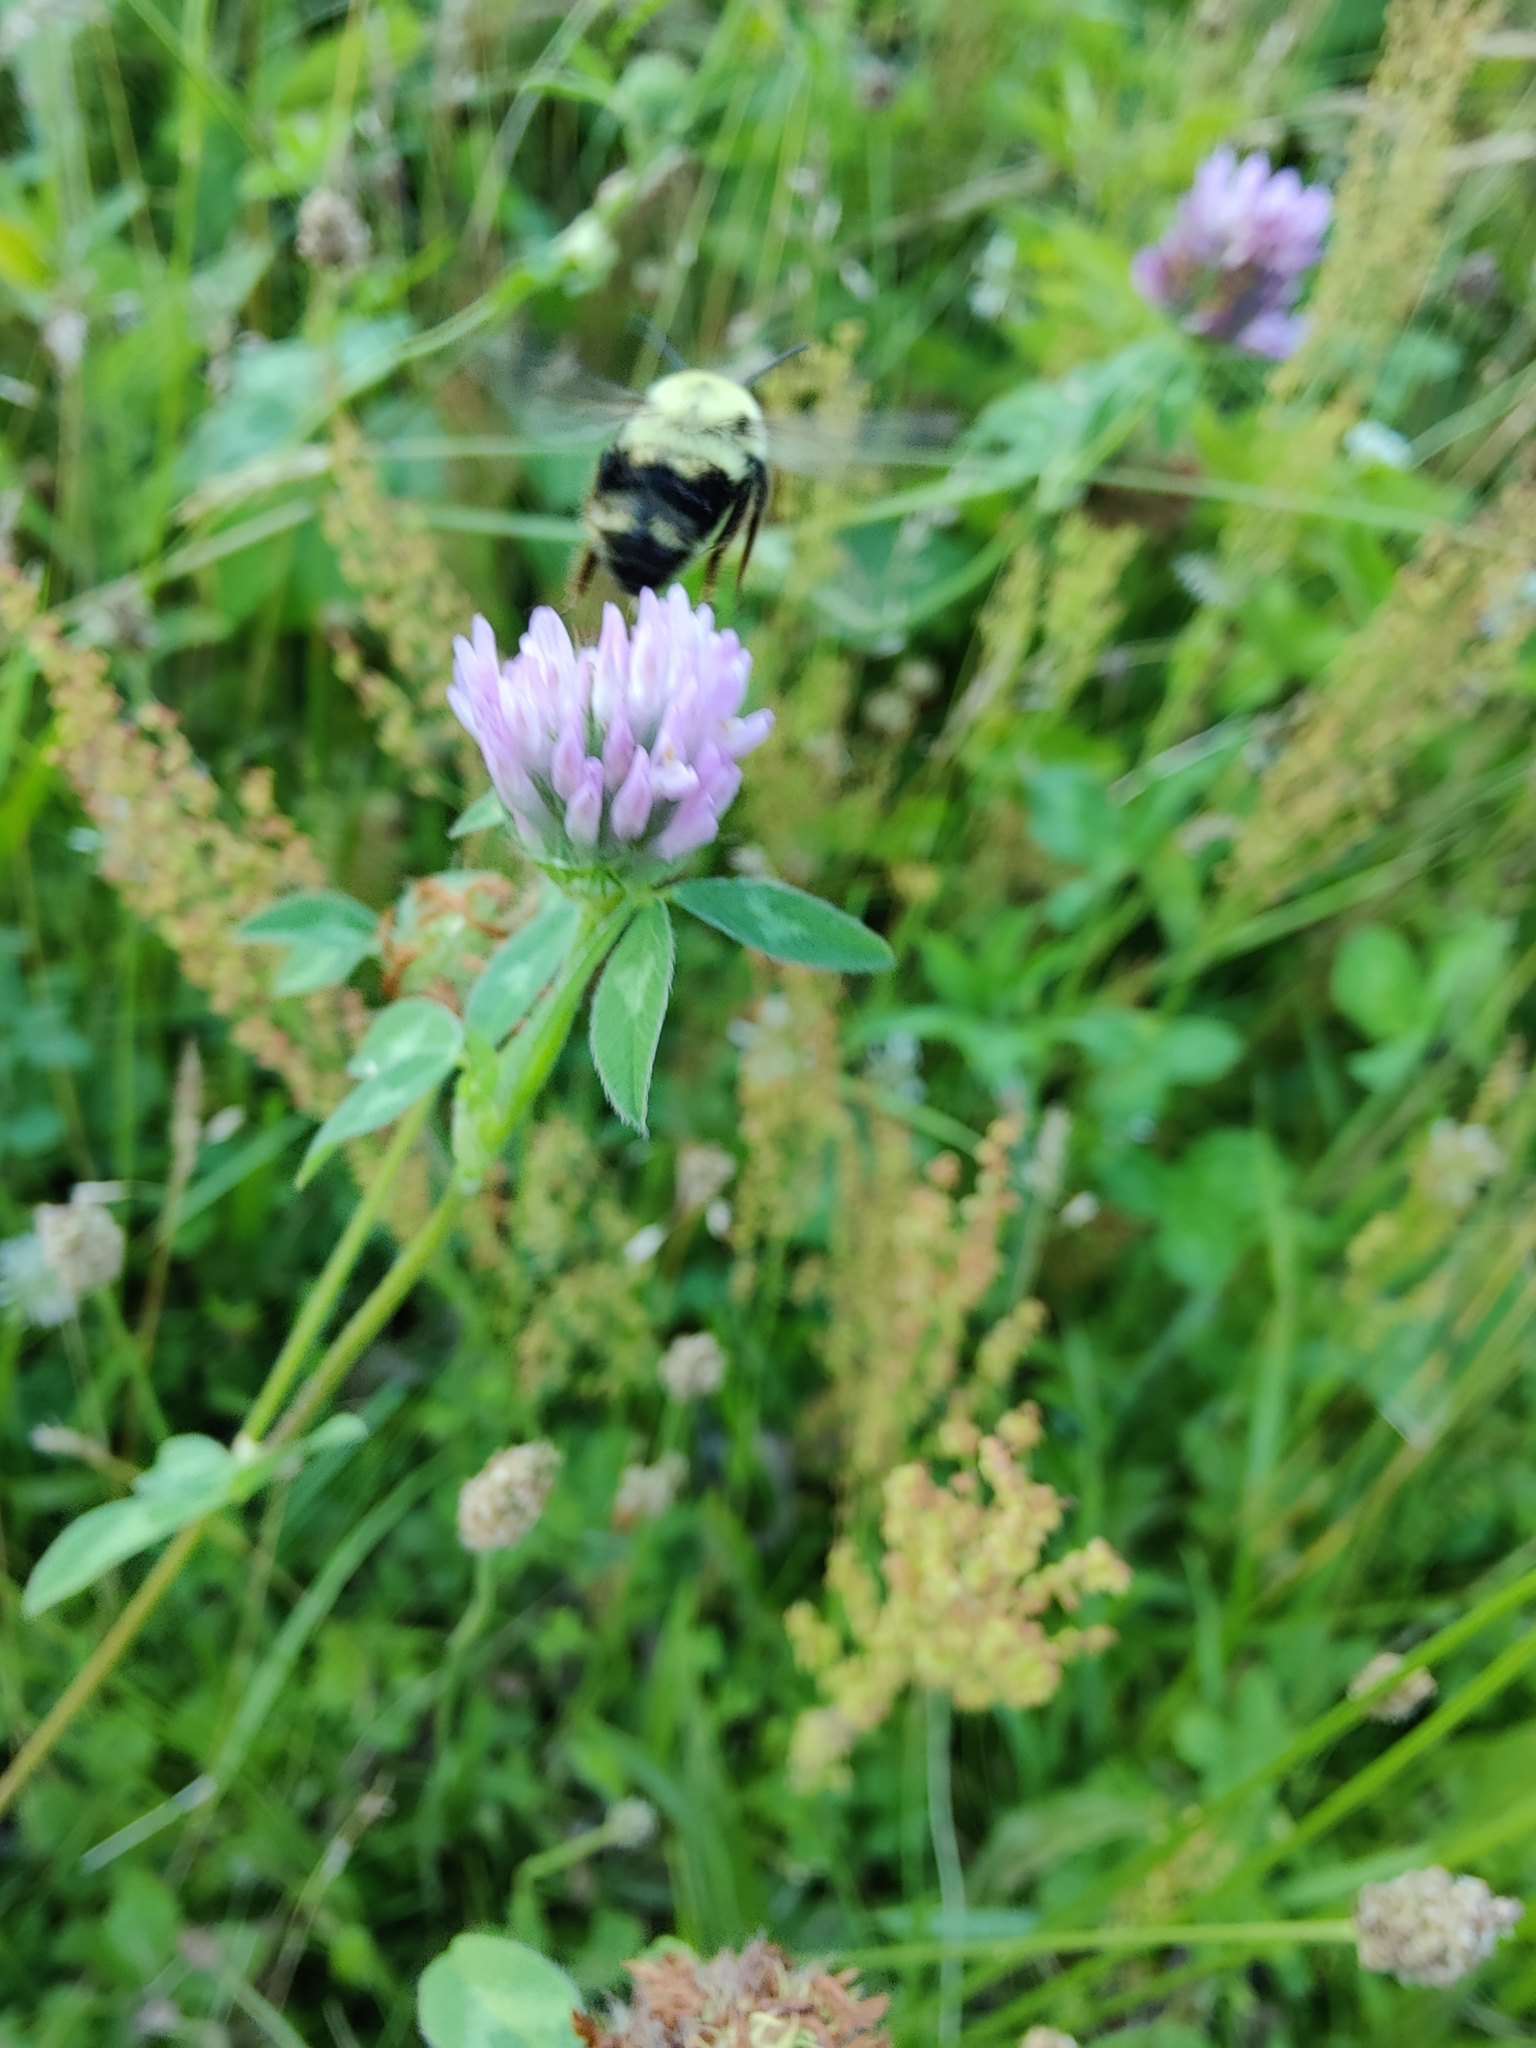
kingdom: Animalia
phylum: Arthropoda
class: Insecta
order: Hymenoptera
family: Apidae
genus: Bombus
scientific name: Bombus bimaculatus
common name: Two-spotted bumble bee
